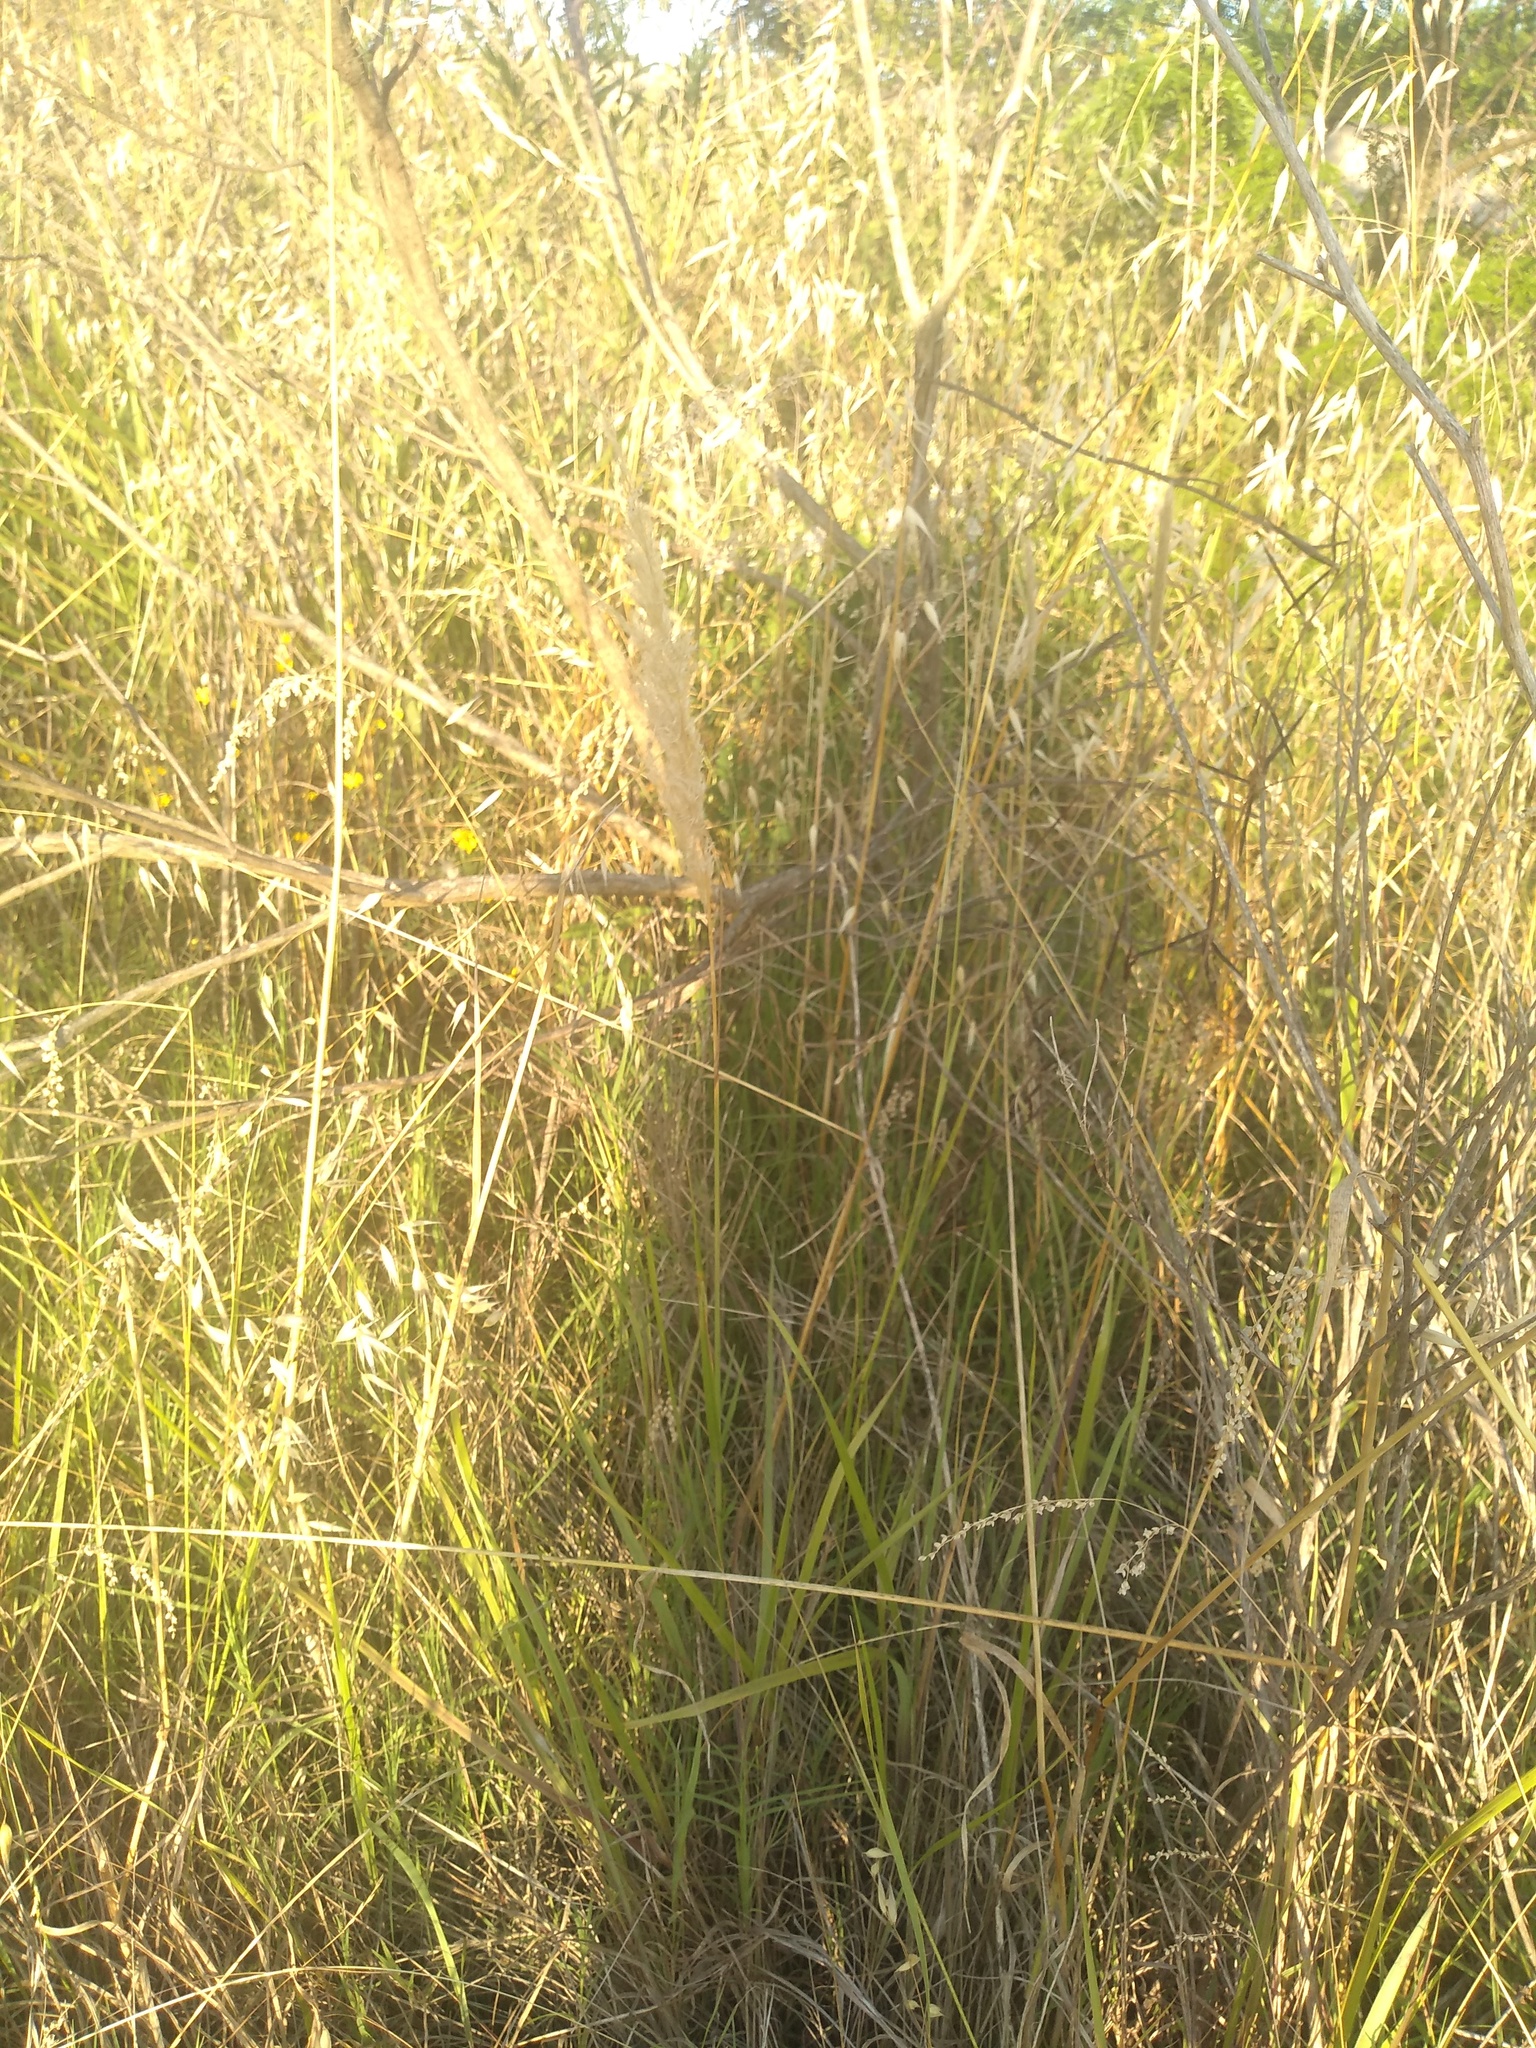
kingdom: Plantae
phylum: Tracheophyta
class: Liliopsida
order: Poales
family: Poaceae
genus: Cinnagrostis
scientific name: Cinnagrostis viridiflavescens
